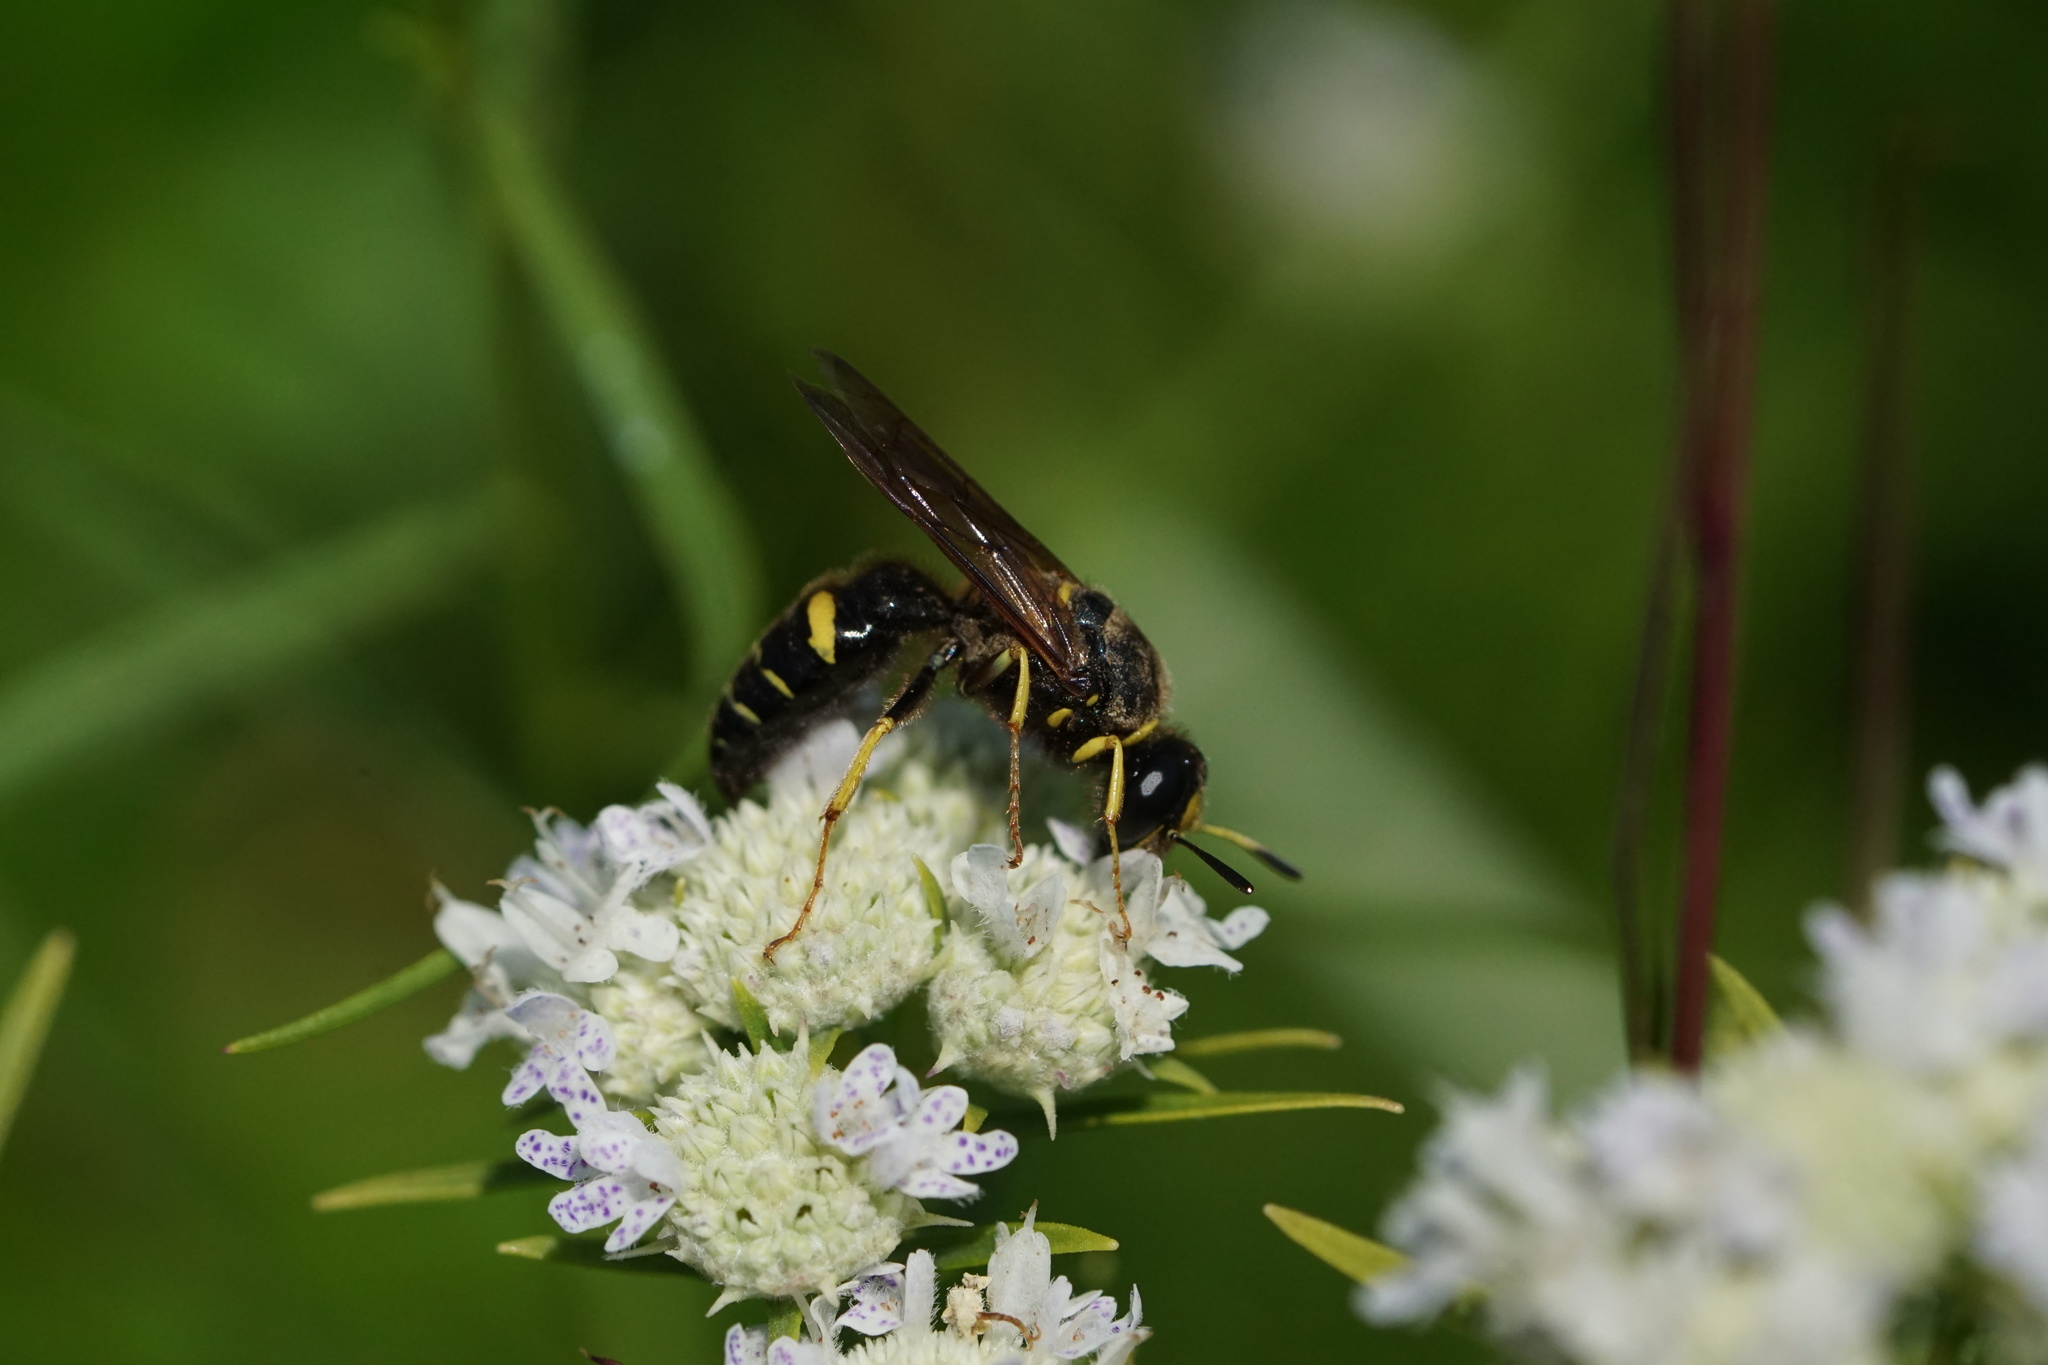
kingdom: Animalia
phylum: Arthropoda
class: Insecta
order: Hymenoptera
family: Crabronidae
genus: Philanthus
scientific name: Philanthus sanbornii
